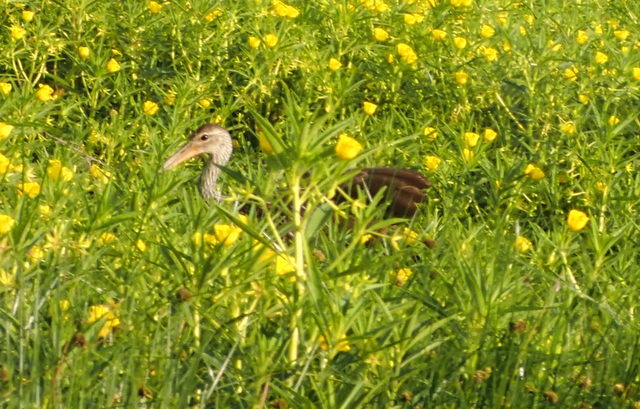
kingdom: Animalia
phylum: Chordata
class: Aves
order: Gruiformes
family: Aramidae
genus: Aramus
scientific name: Aramus guarauna
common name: Limpkin
